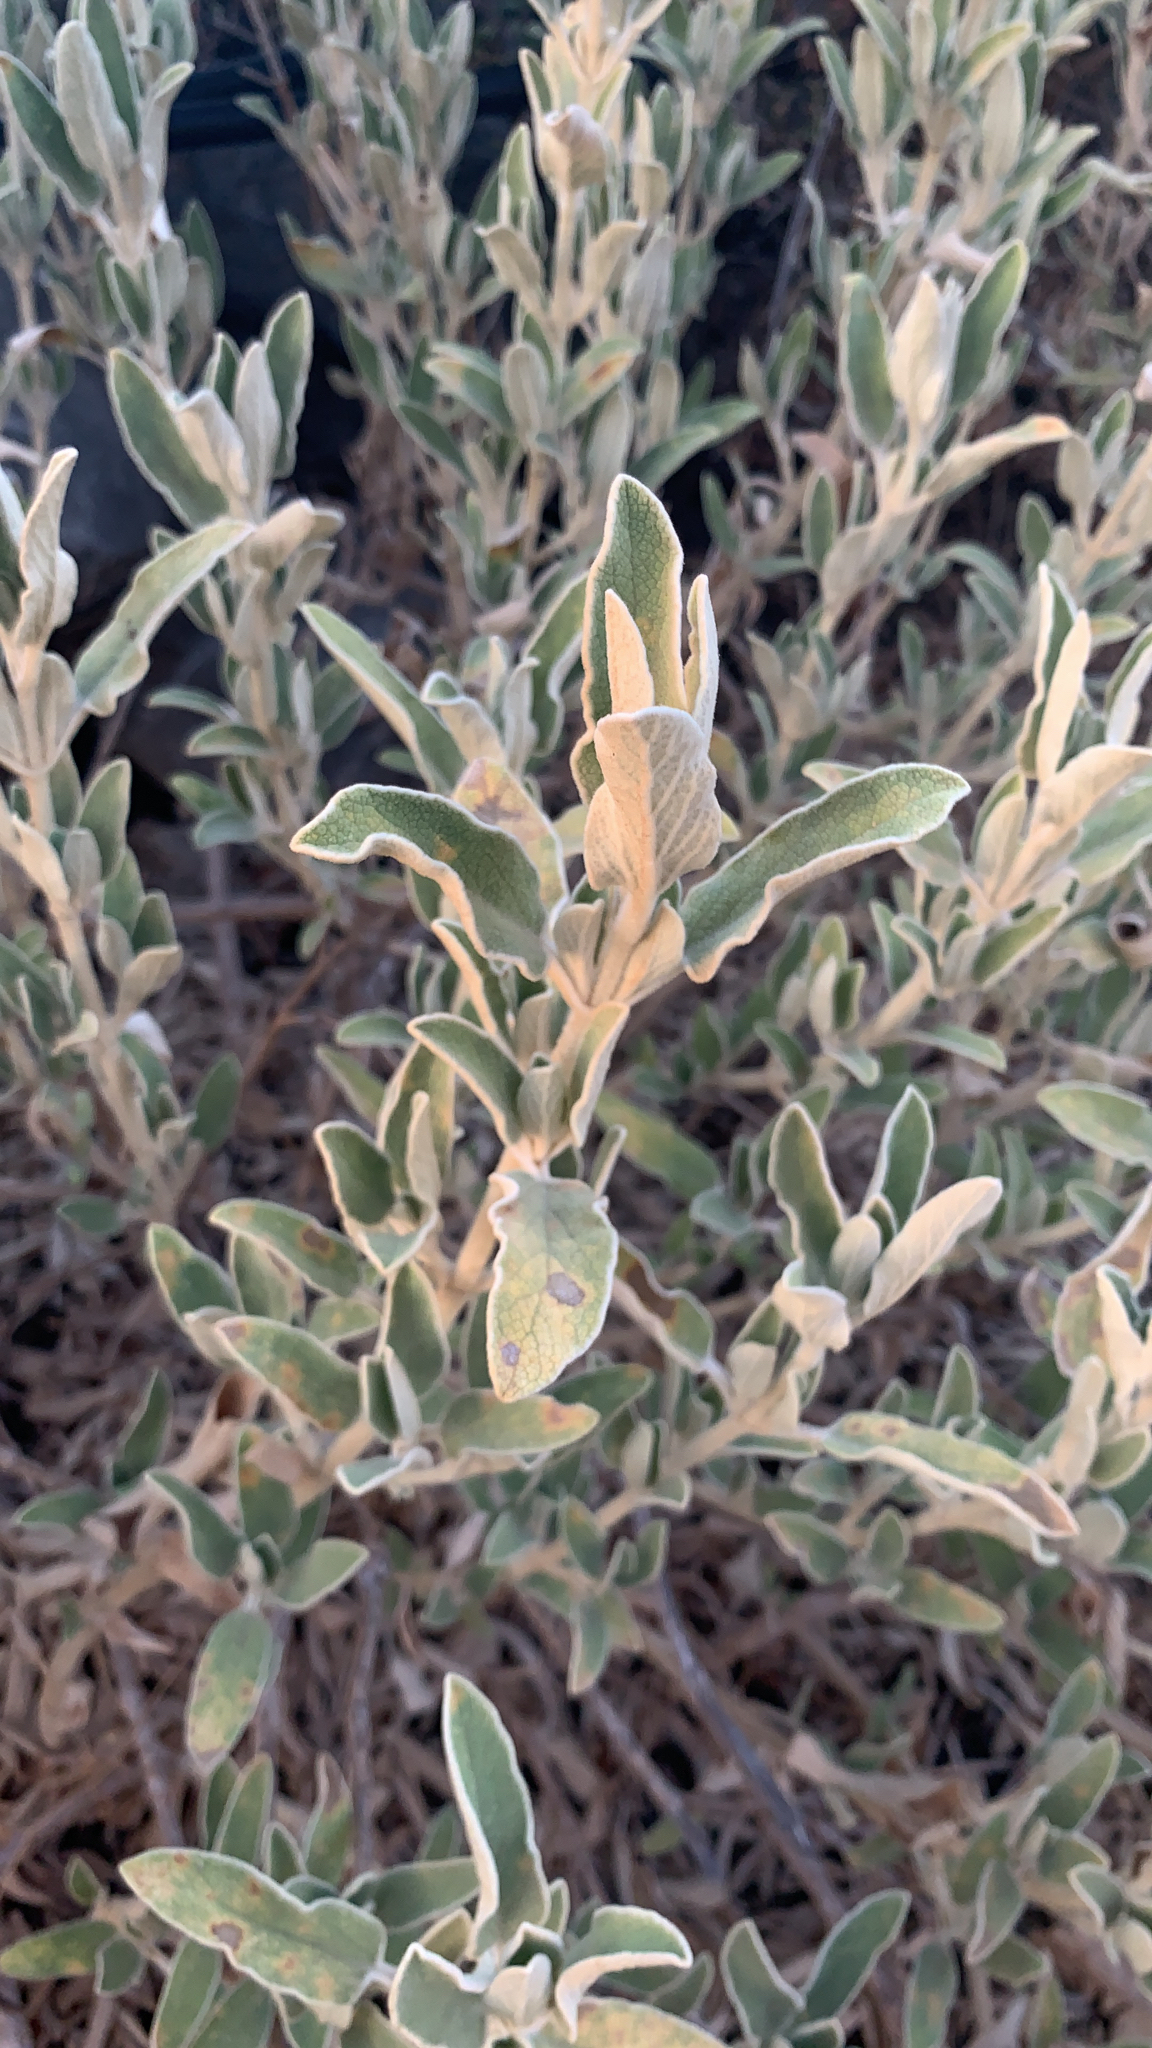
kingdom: Plantae
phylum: Tracheophyta
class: Magnoliopsida
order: Lamiales
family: Lamiaceae
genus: Phlomis
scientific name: Phlomis fruticosa
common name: Jerusalem sage
